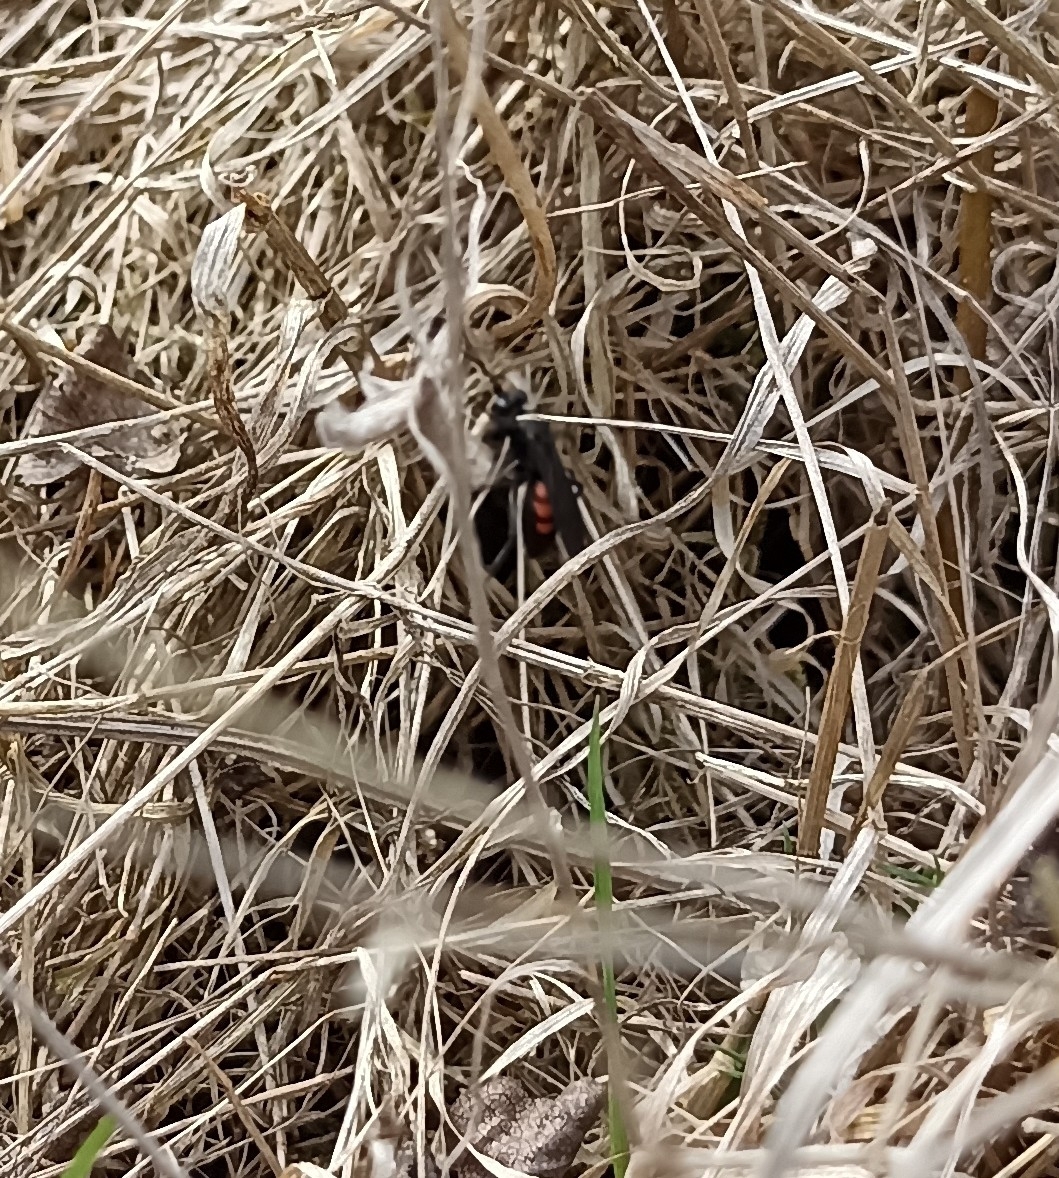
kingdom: Animalia
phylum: Arthropoda
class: Insecta
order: Hymenoptera
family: Pompilidae
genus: Anoplius
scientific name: Anoplius viaticus
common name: Black banded spider wasp
